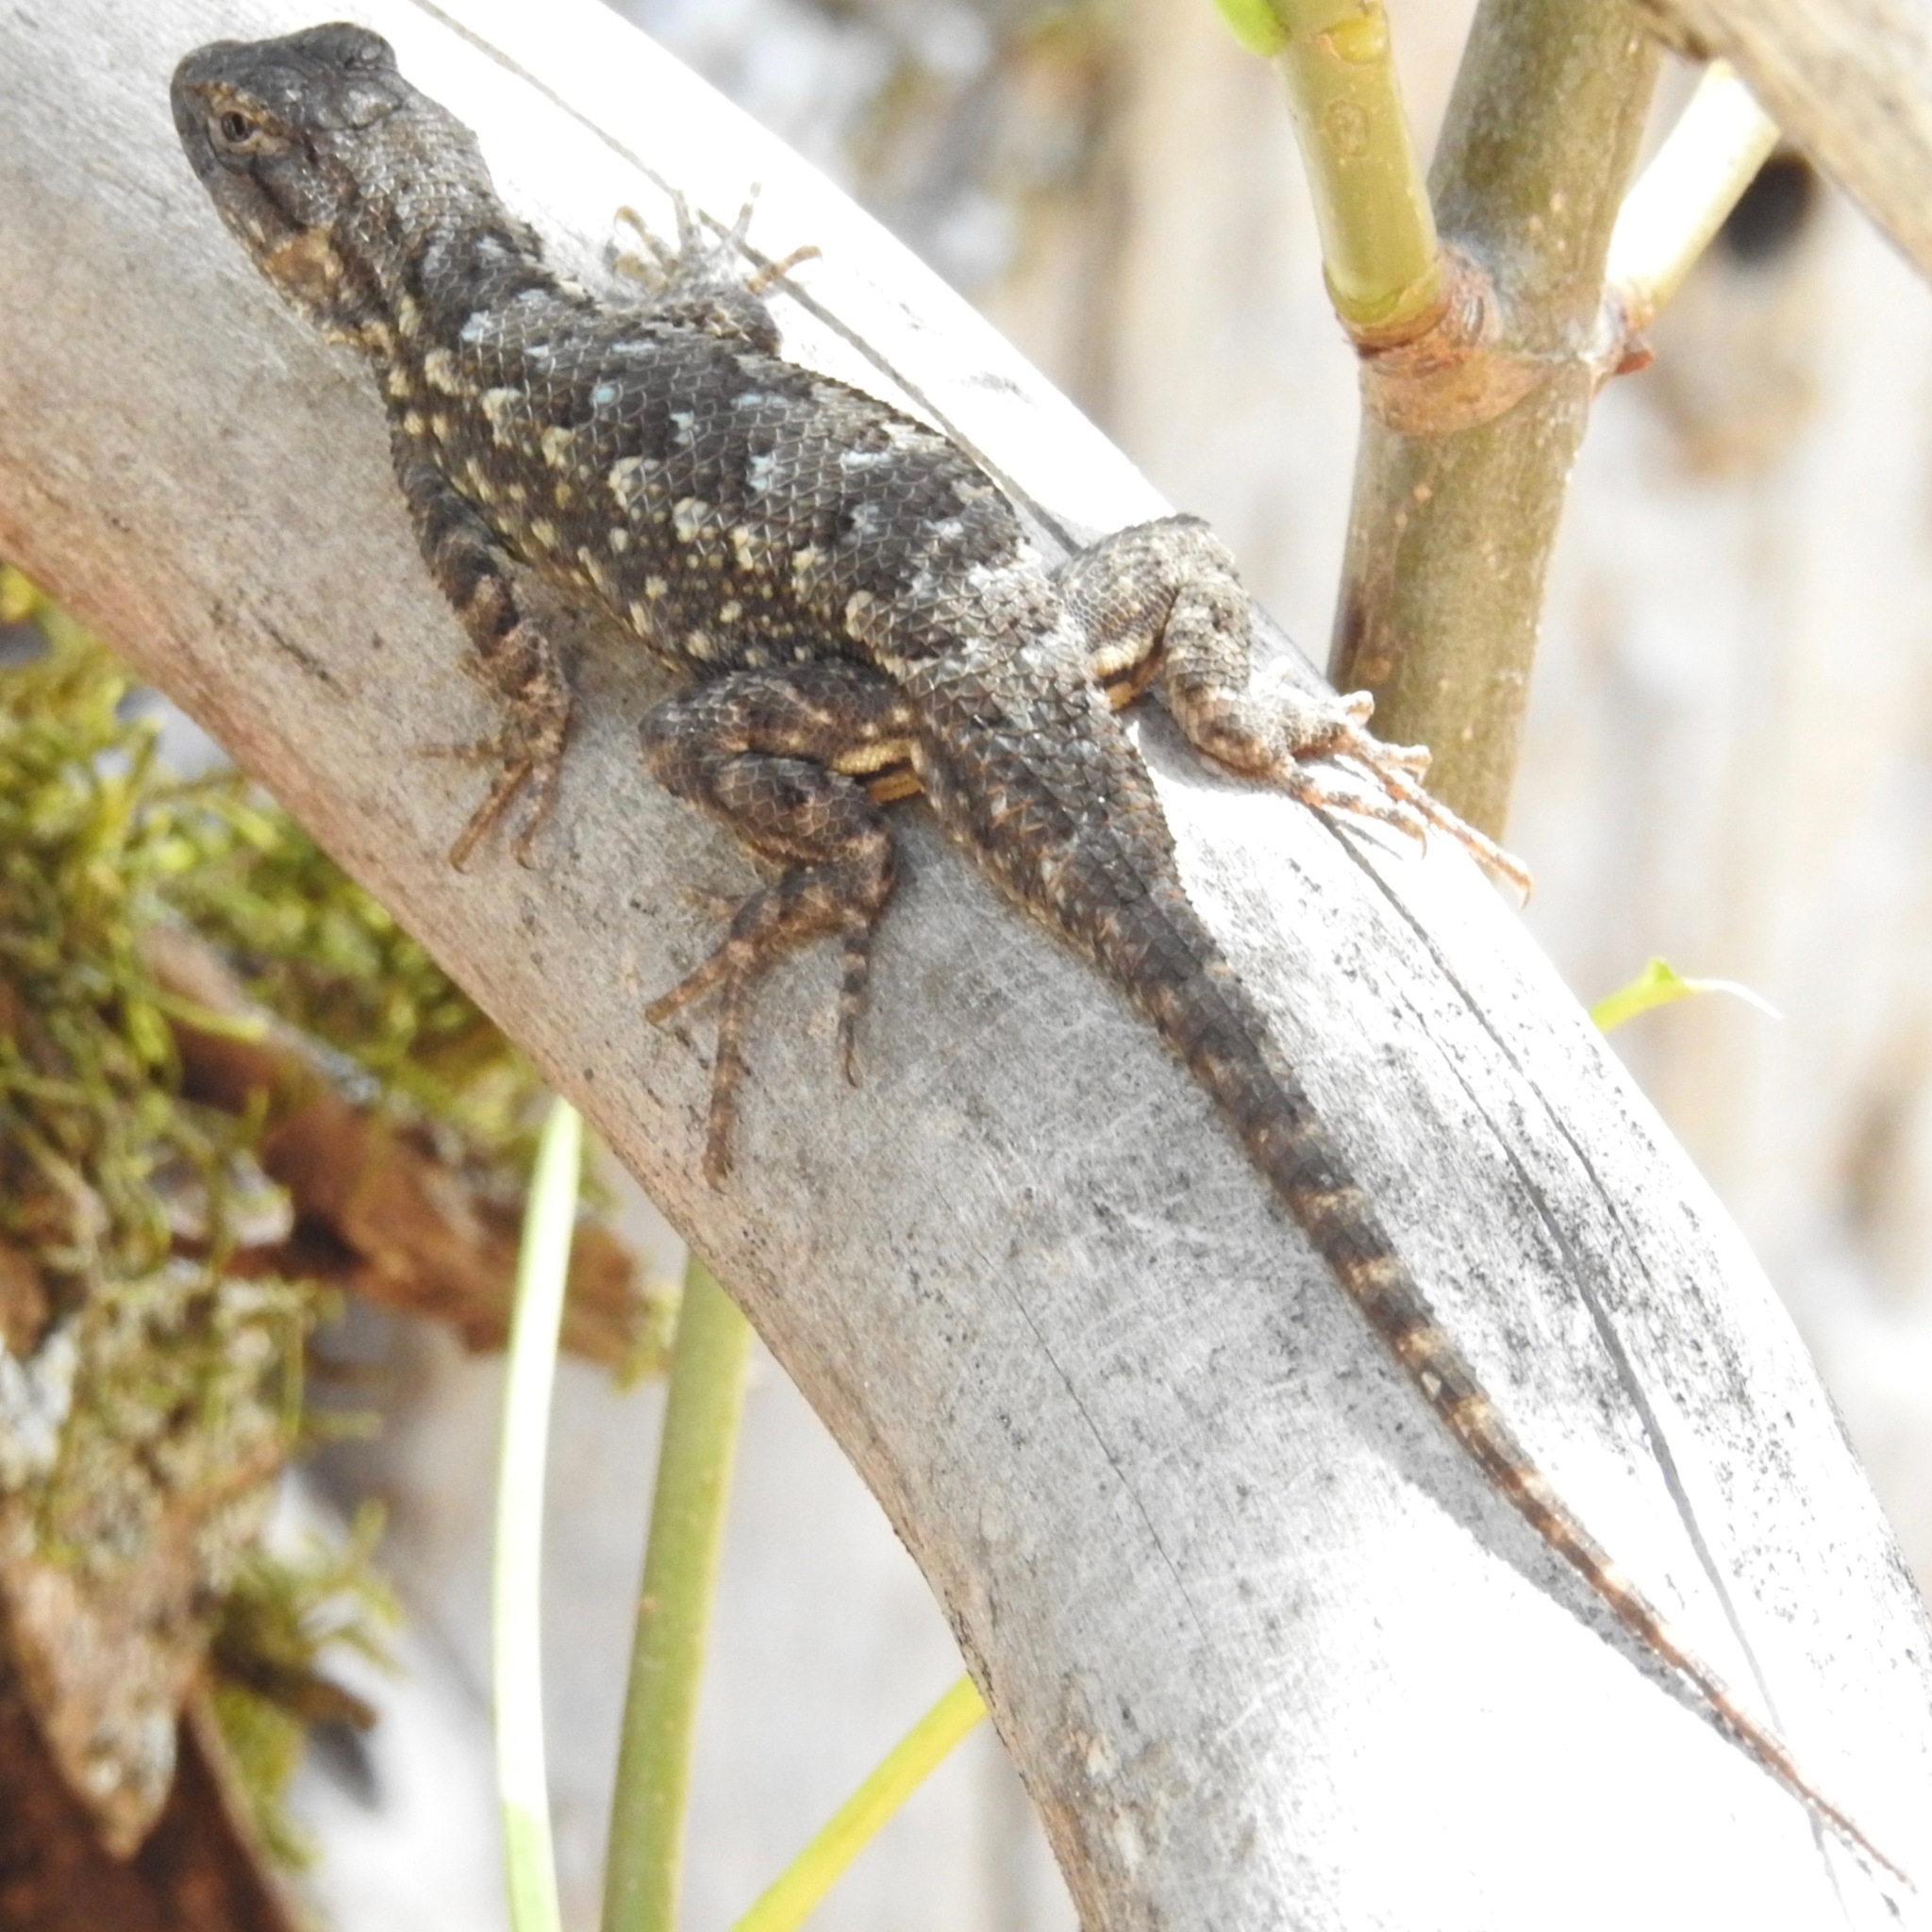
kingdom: Animalia
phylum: Chordata
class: Squamata
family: Phrynosomatidae
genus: Sceloporus
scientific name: Sceloporus occidentalis
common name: Western fence lizard
